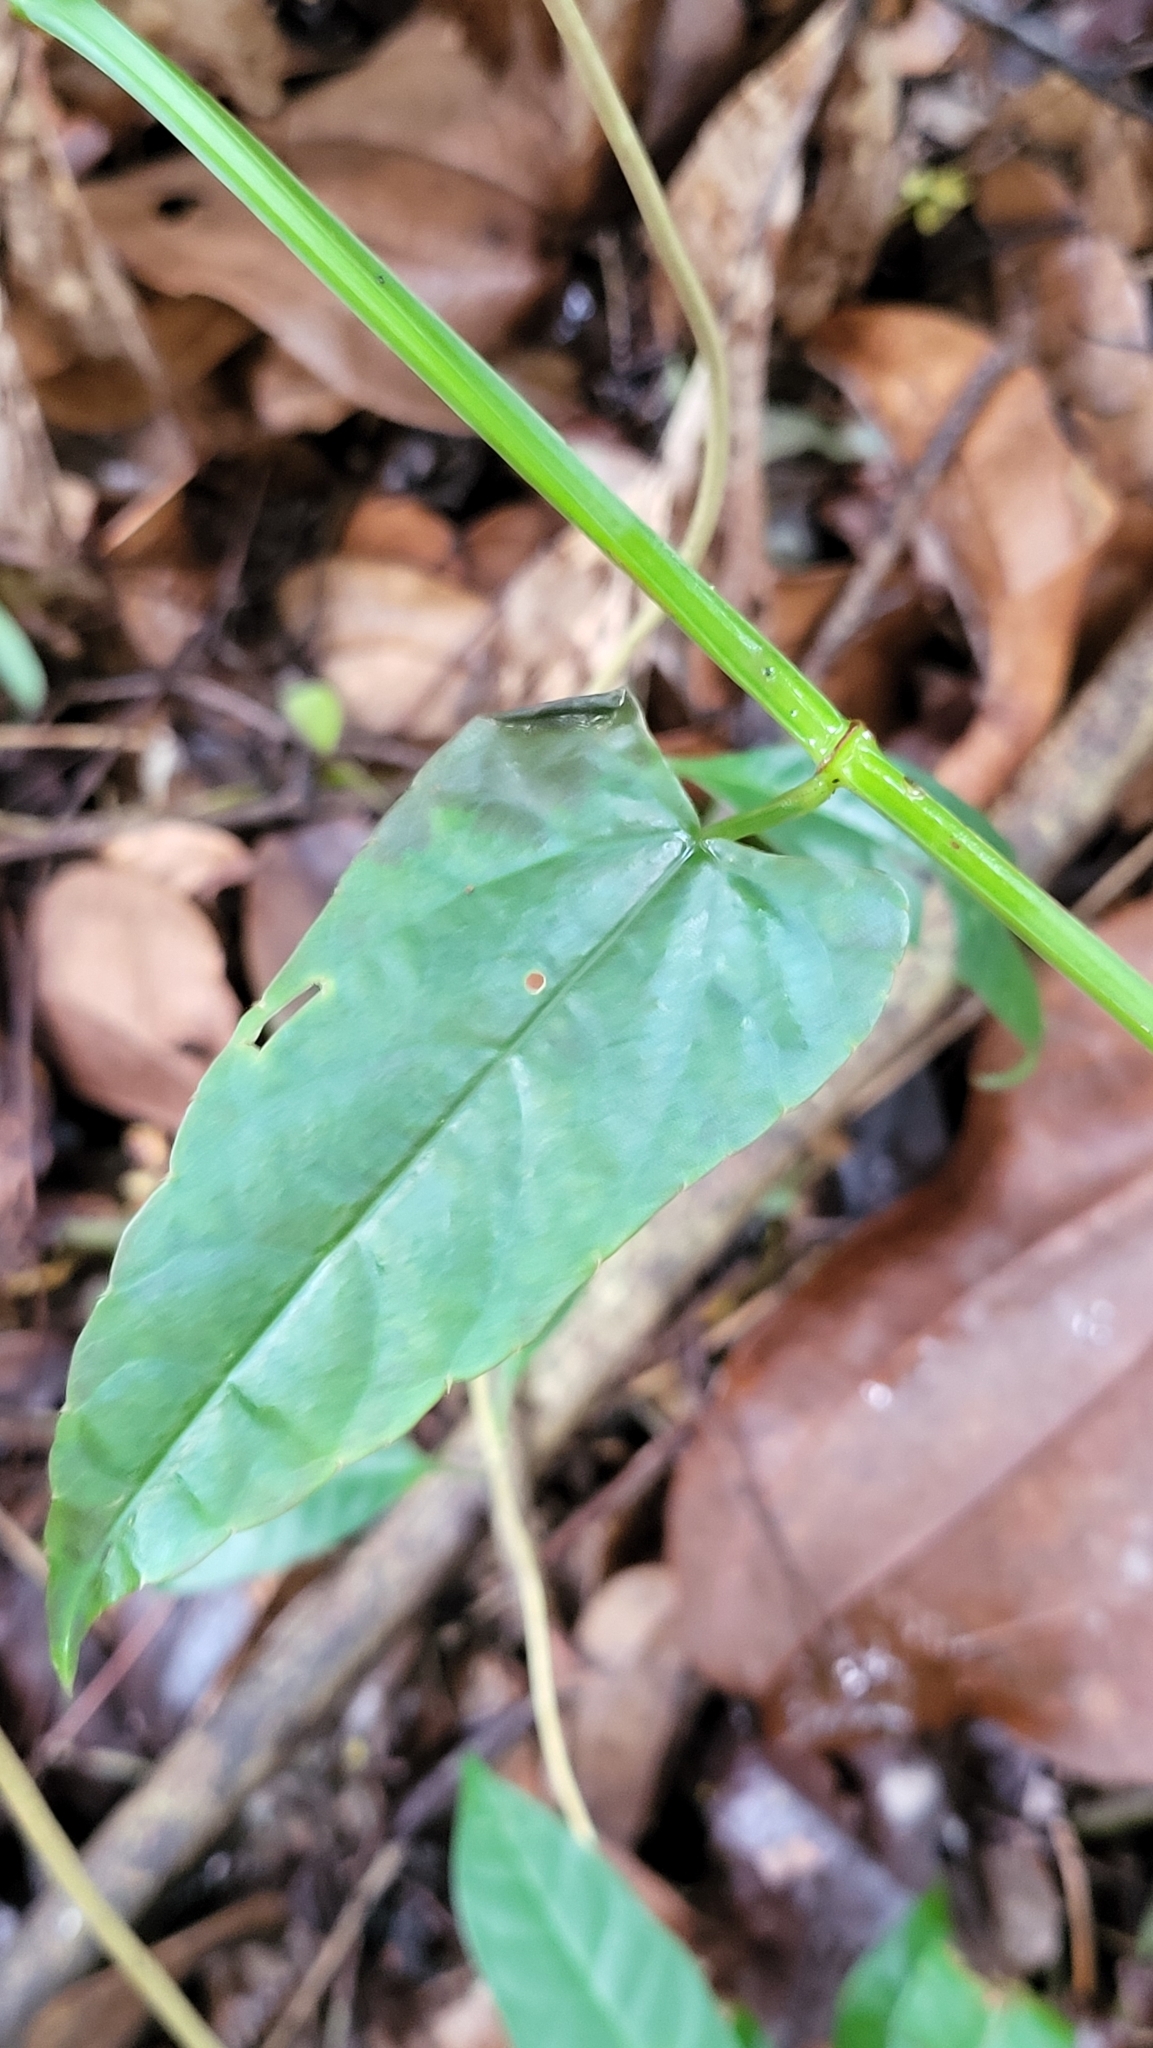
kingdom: Plantae
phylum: Tracheophyta
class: Magnoliopsida
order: Vitales
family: Vitaceae
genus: Cissus
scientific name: Cissus hastata
